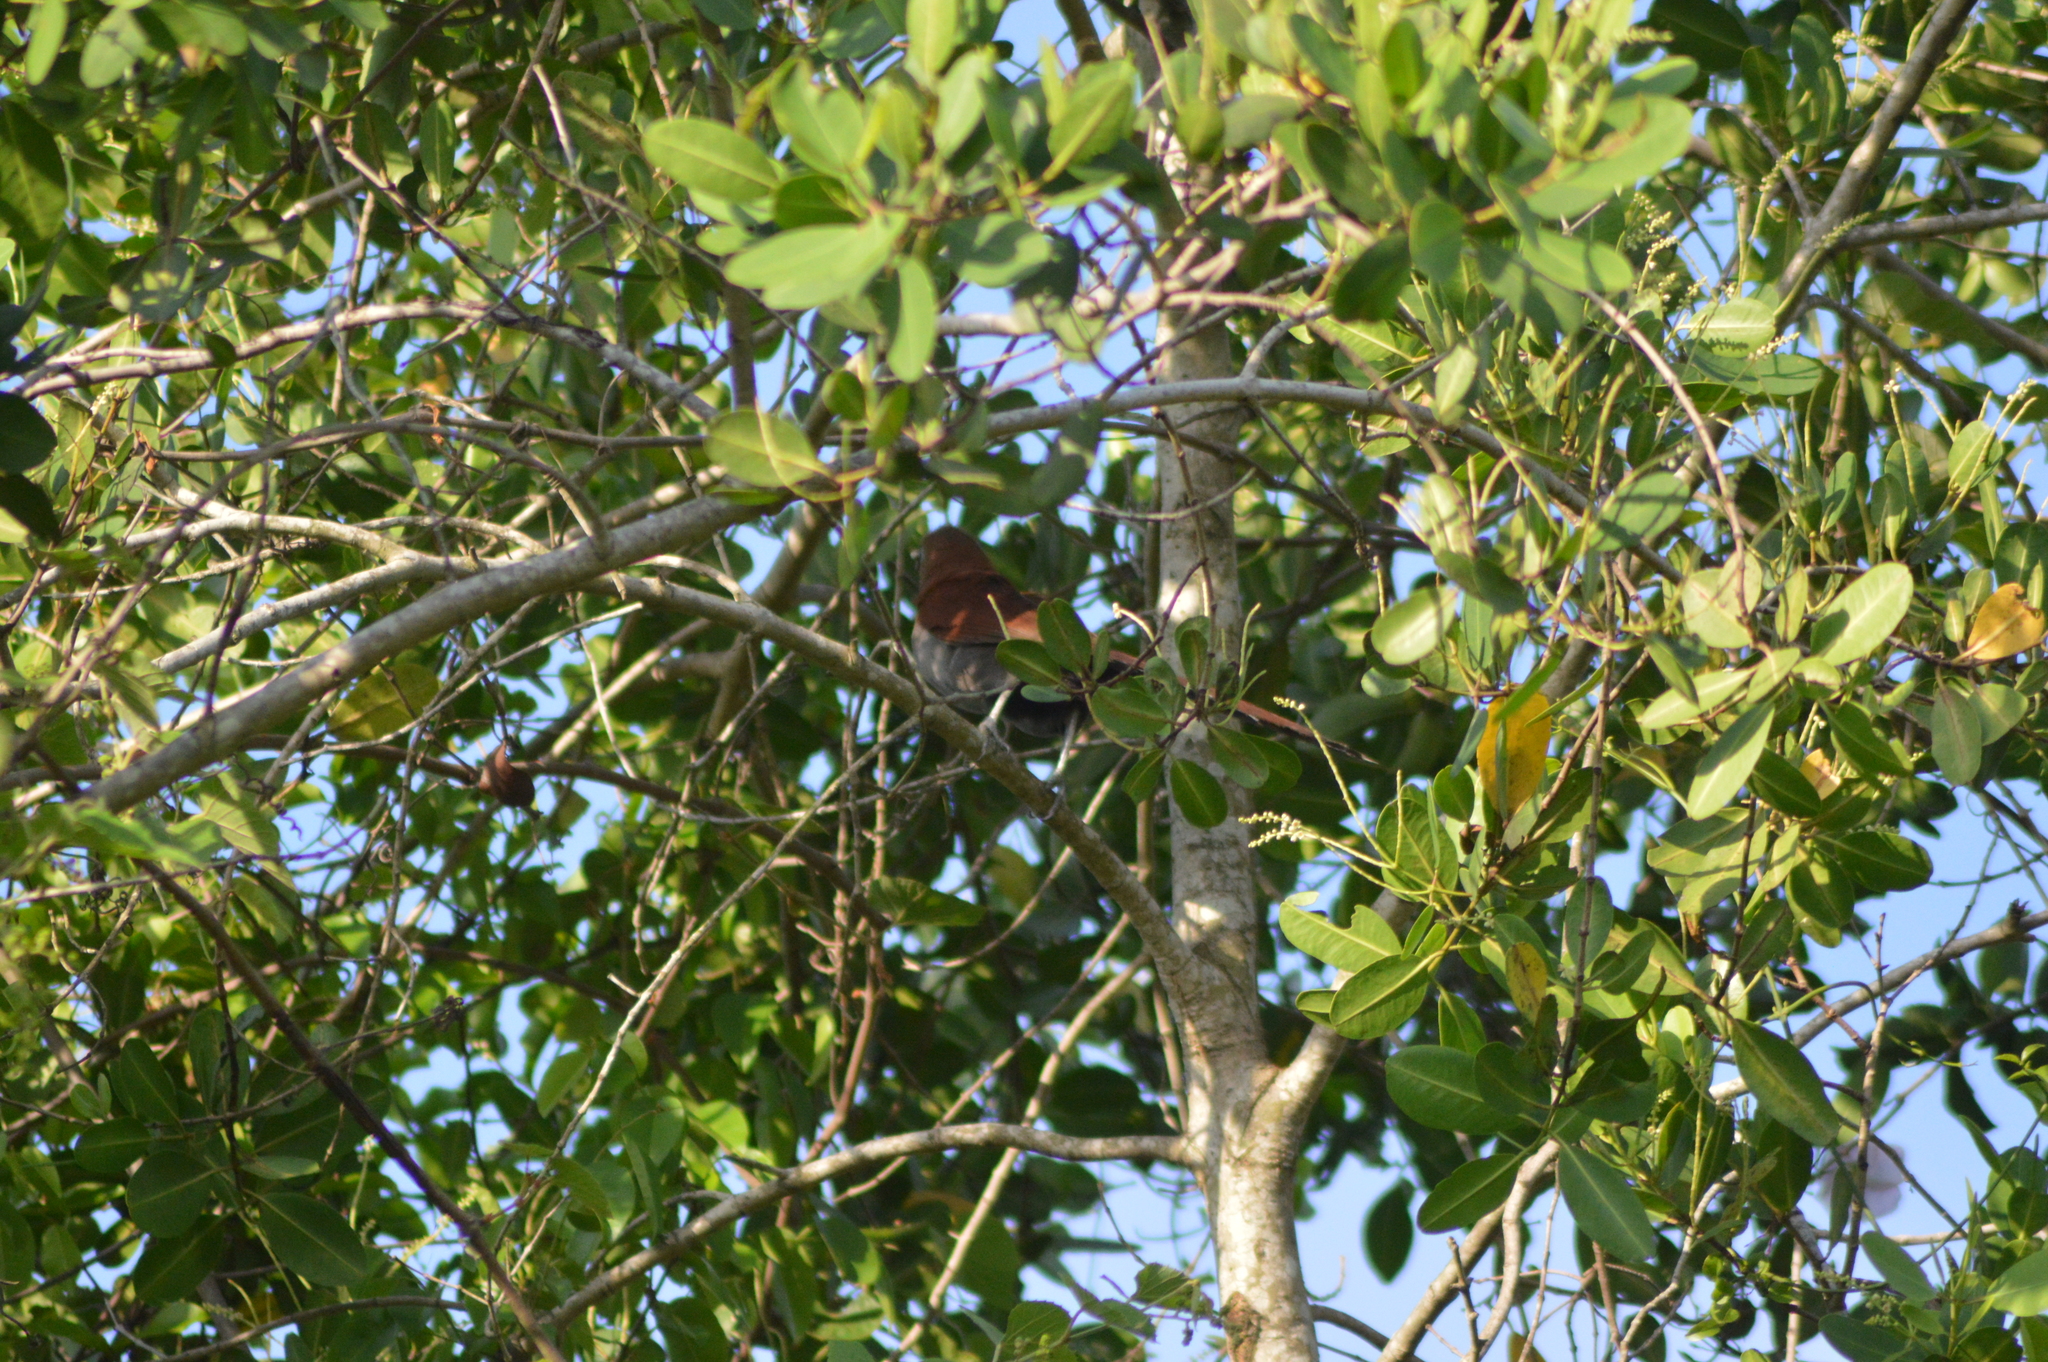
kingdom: Animalia
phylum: Chordata
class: Aves
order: Cuculiformes
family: Cuculidae
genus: Piaya
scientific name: Piaya cayana
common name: Squirrel cuckoo
